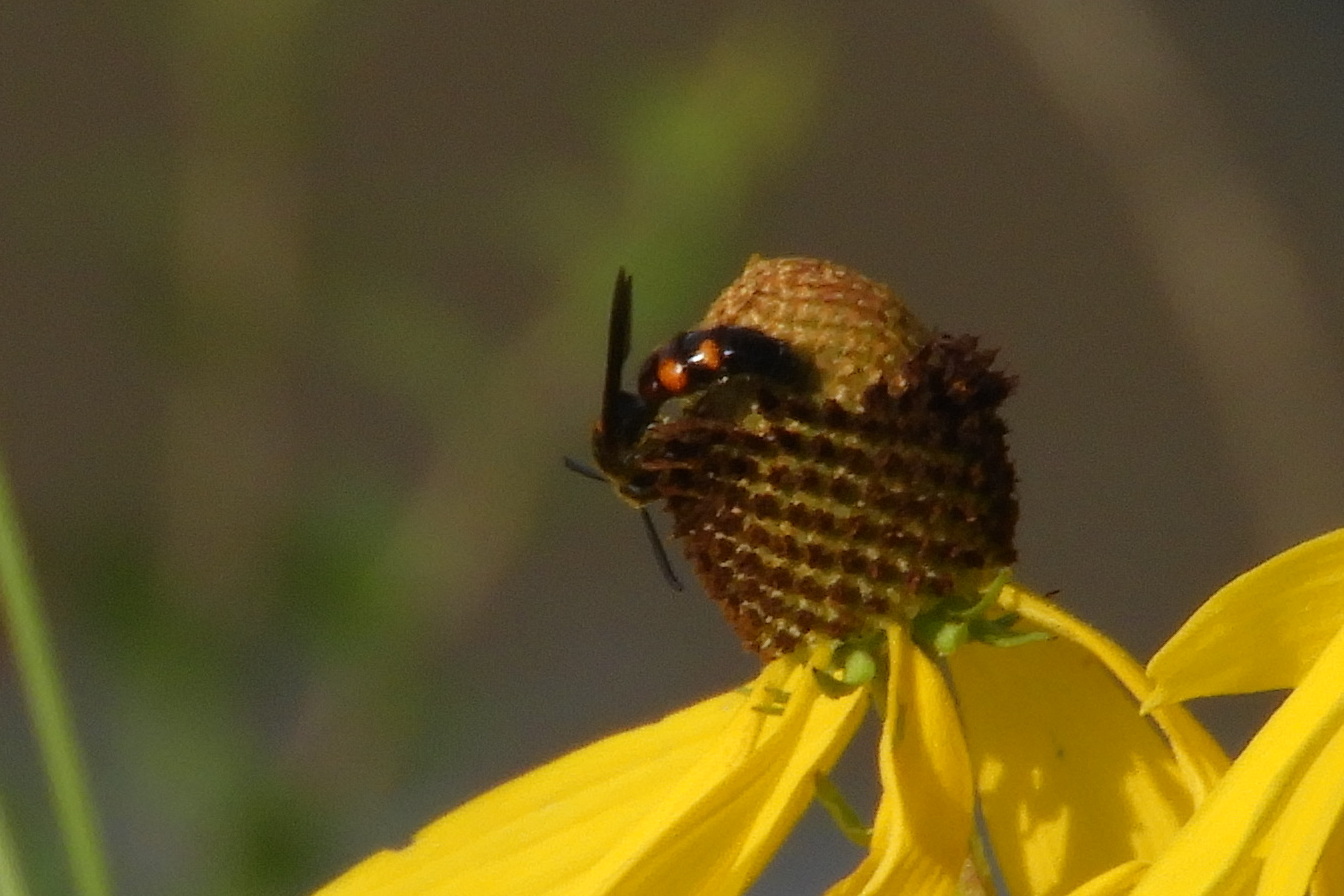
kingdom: Animalia
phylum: Arthropoda
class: Insecta
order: Hymenoptera
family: Scoliidae
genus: Scolia
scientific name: Scolia nobilitata
